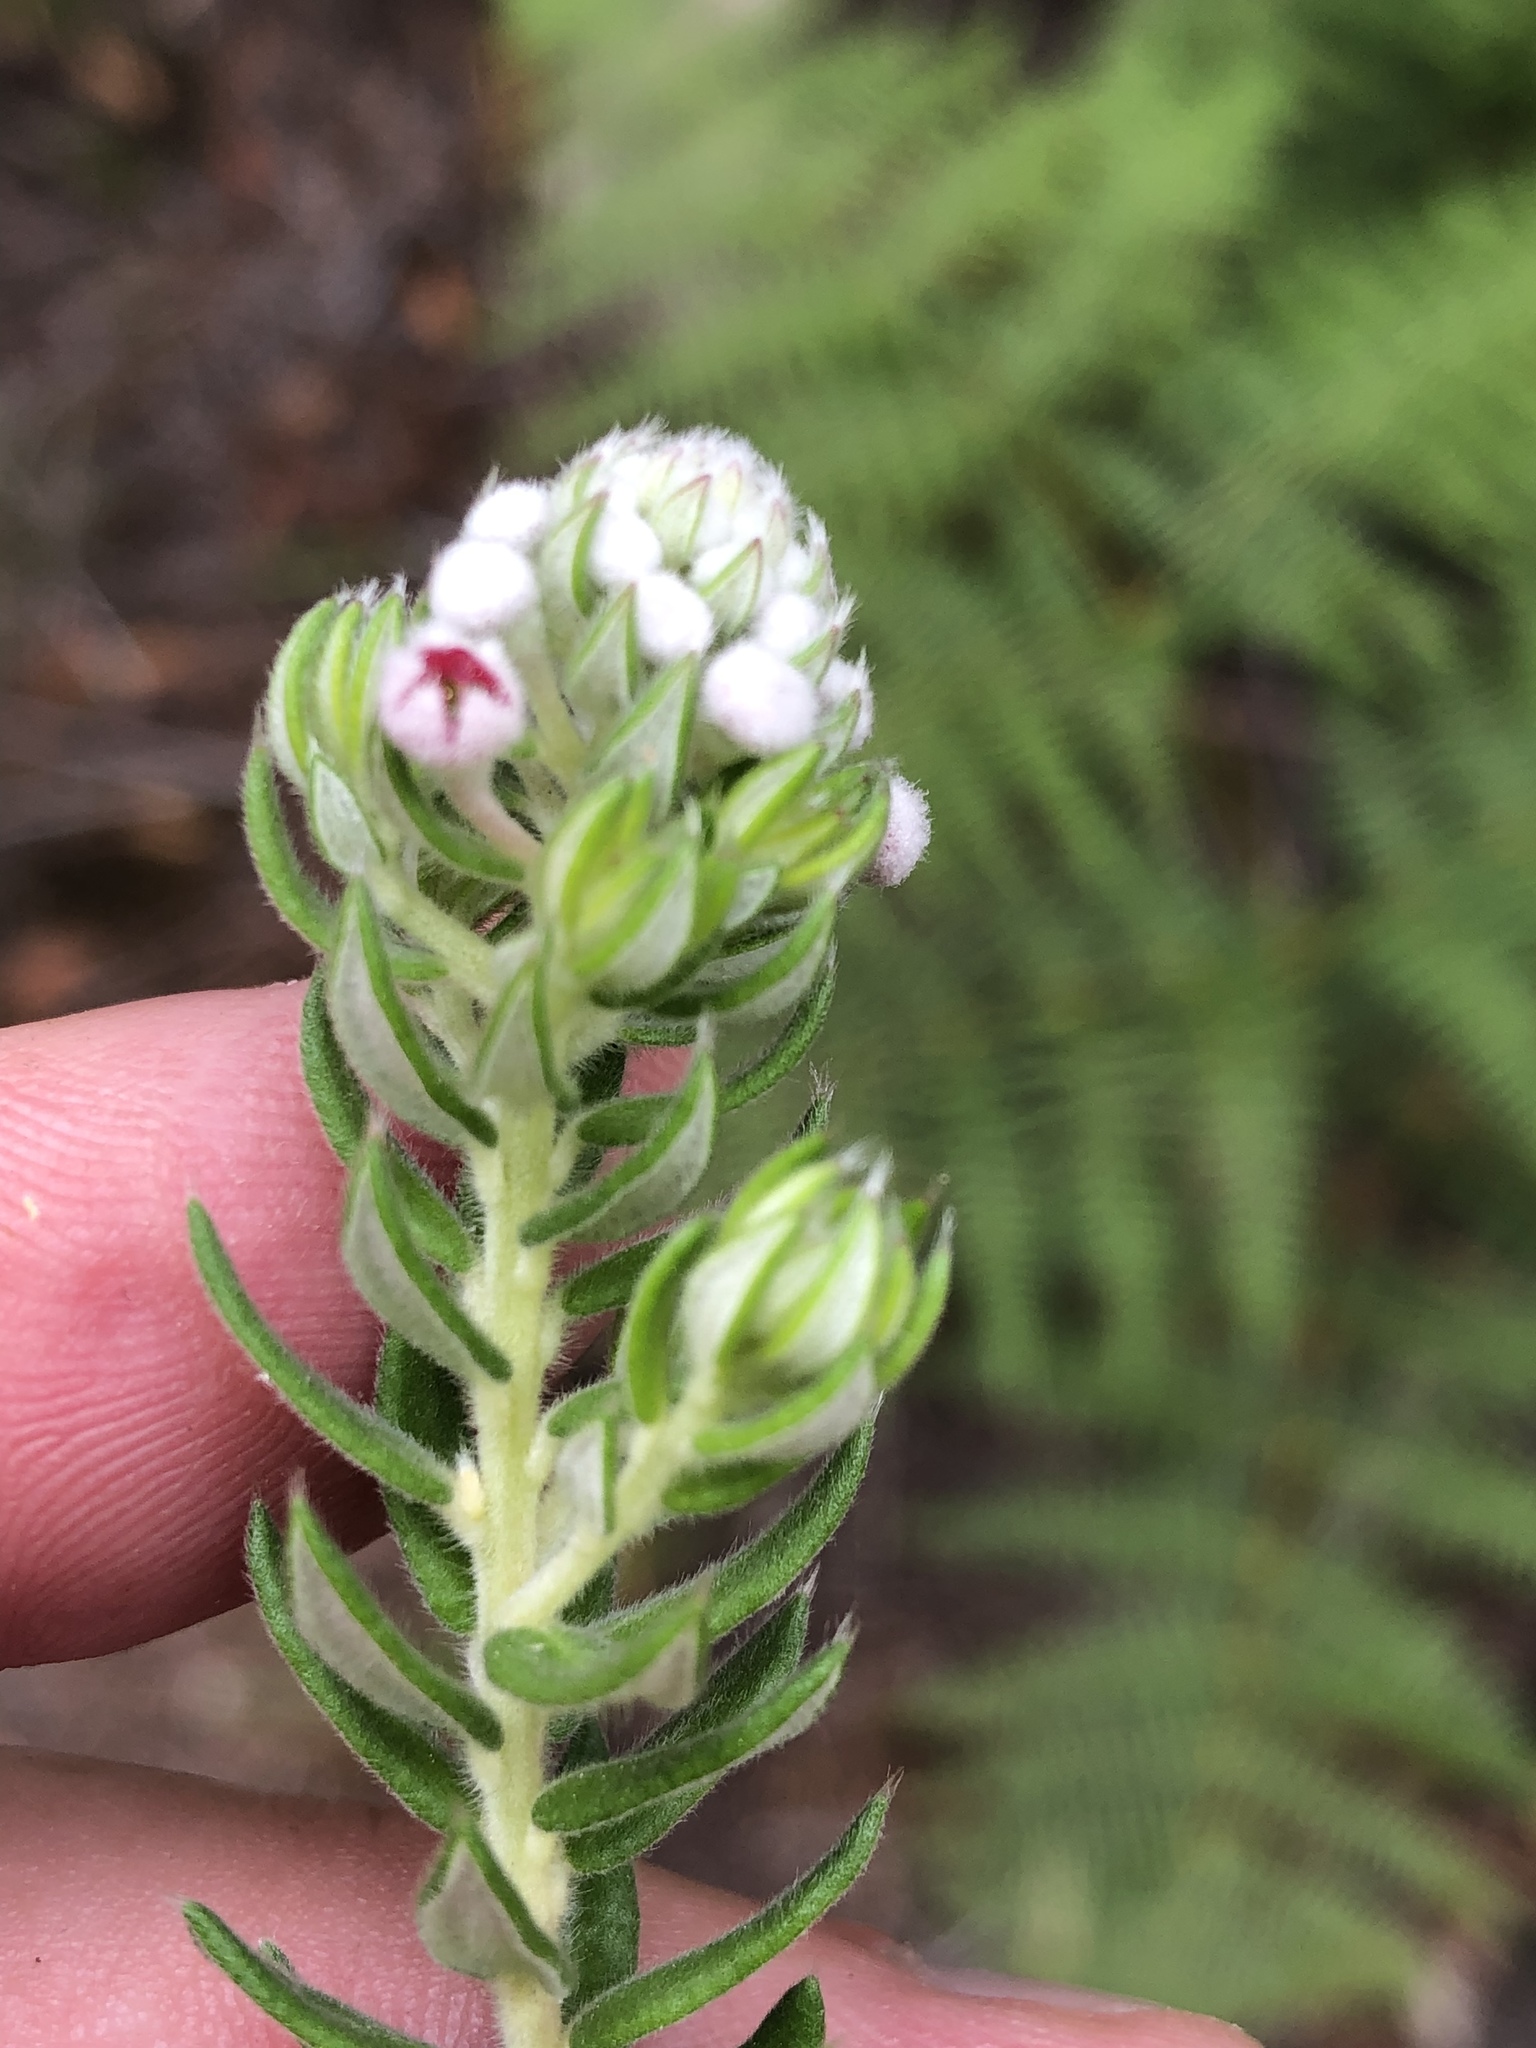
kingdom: Plantae
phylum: Tracheophyta
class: Magnoliopsida
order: Rosales
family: Rhamnaceae
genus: Phylica
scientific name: Phylica pinea
